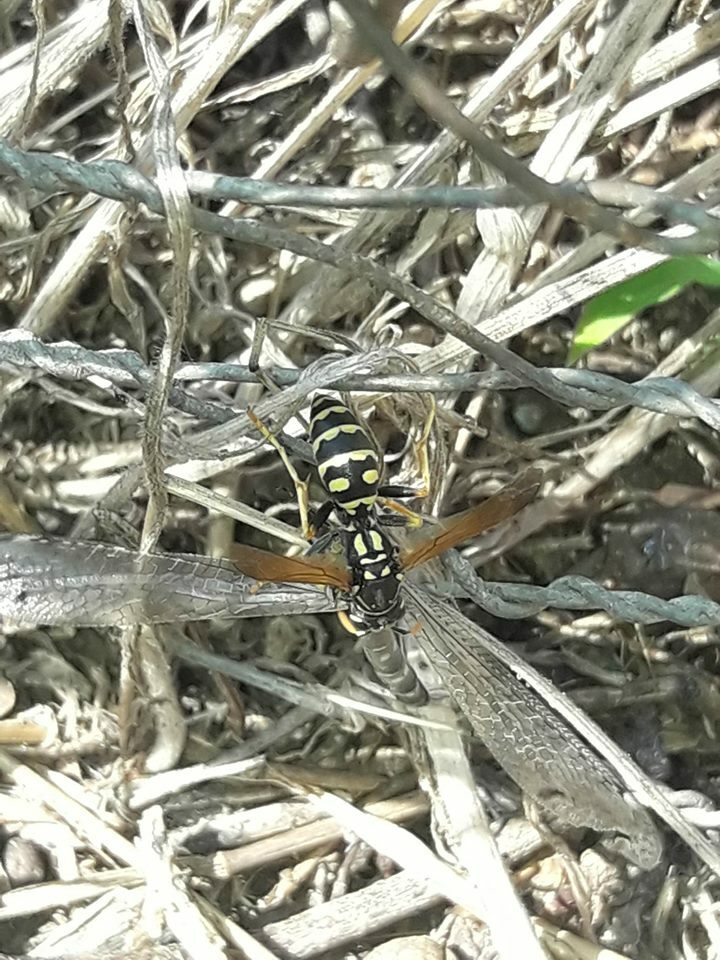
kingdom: Animalia
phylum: Arthropoda
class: Insecta
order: Hymenoptera
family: Eumenidae
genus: Polistes
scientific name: Polistes nimpha
